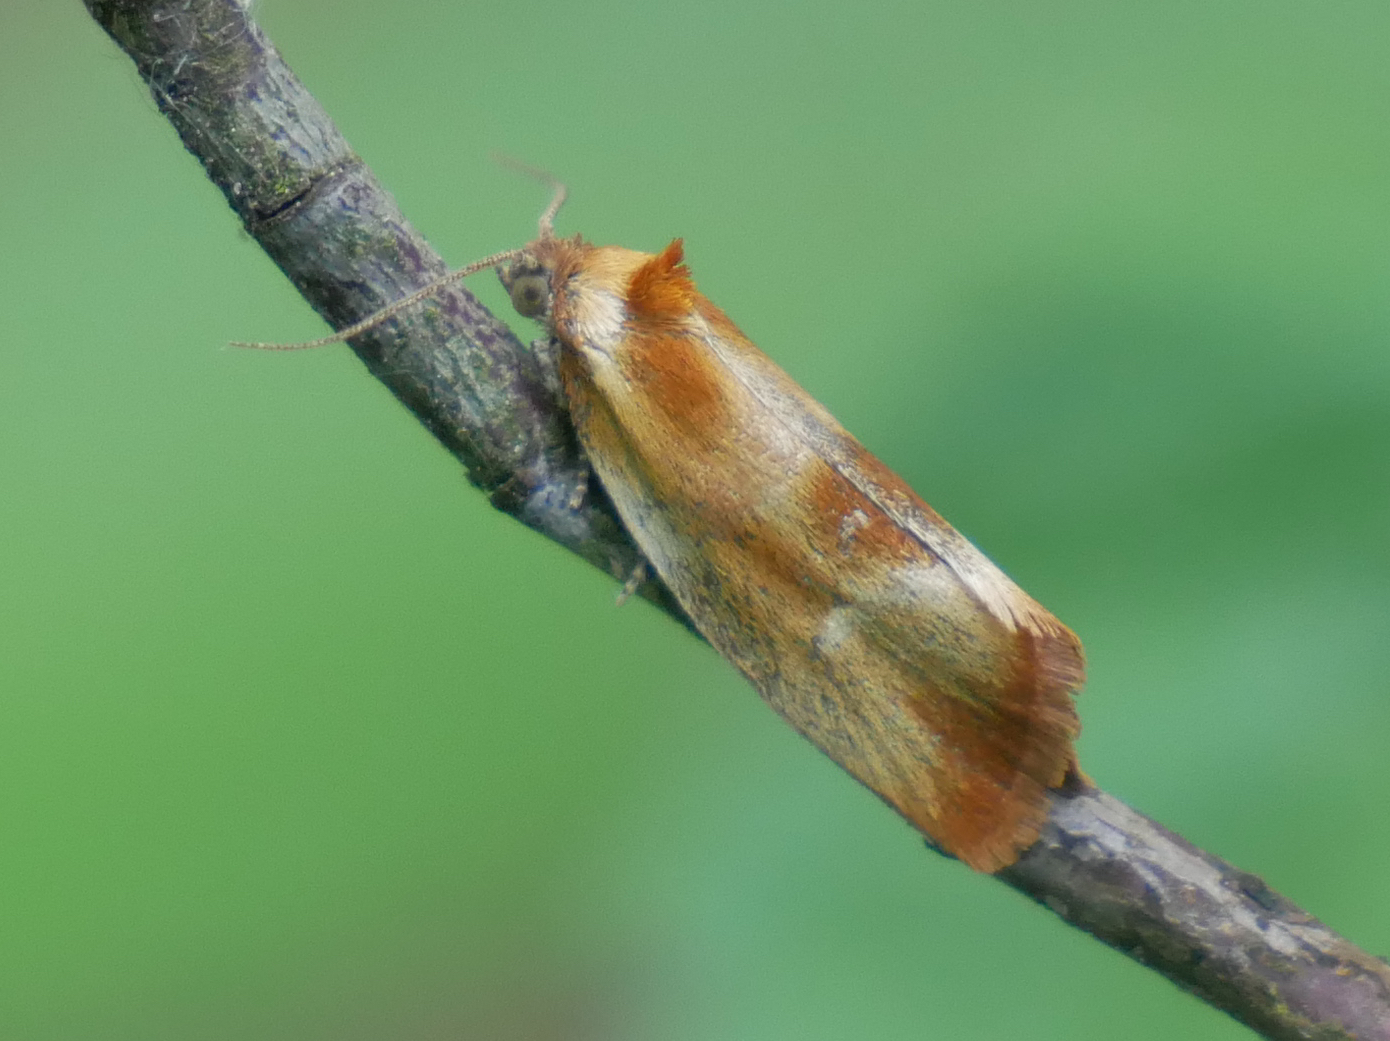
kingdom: Animalia
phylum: Arthropoda
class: Insecta
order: Lepidoptera
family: Tortricidae
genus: Eulia
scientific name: Eulia ministrana
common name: Brassy twist
